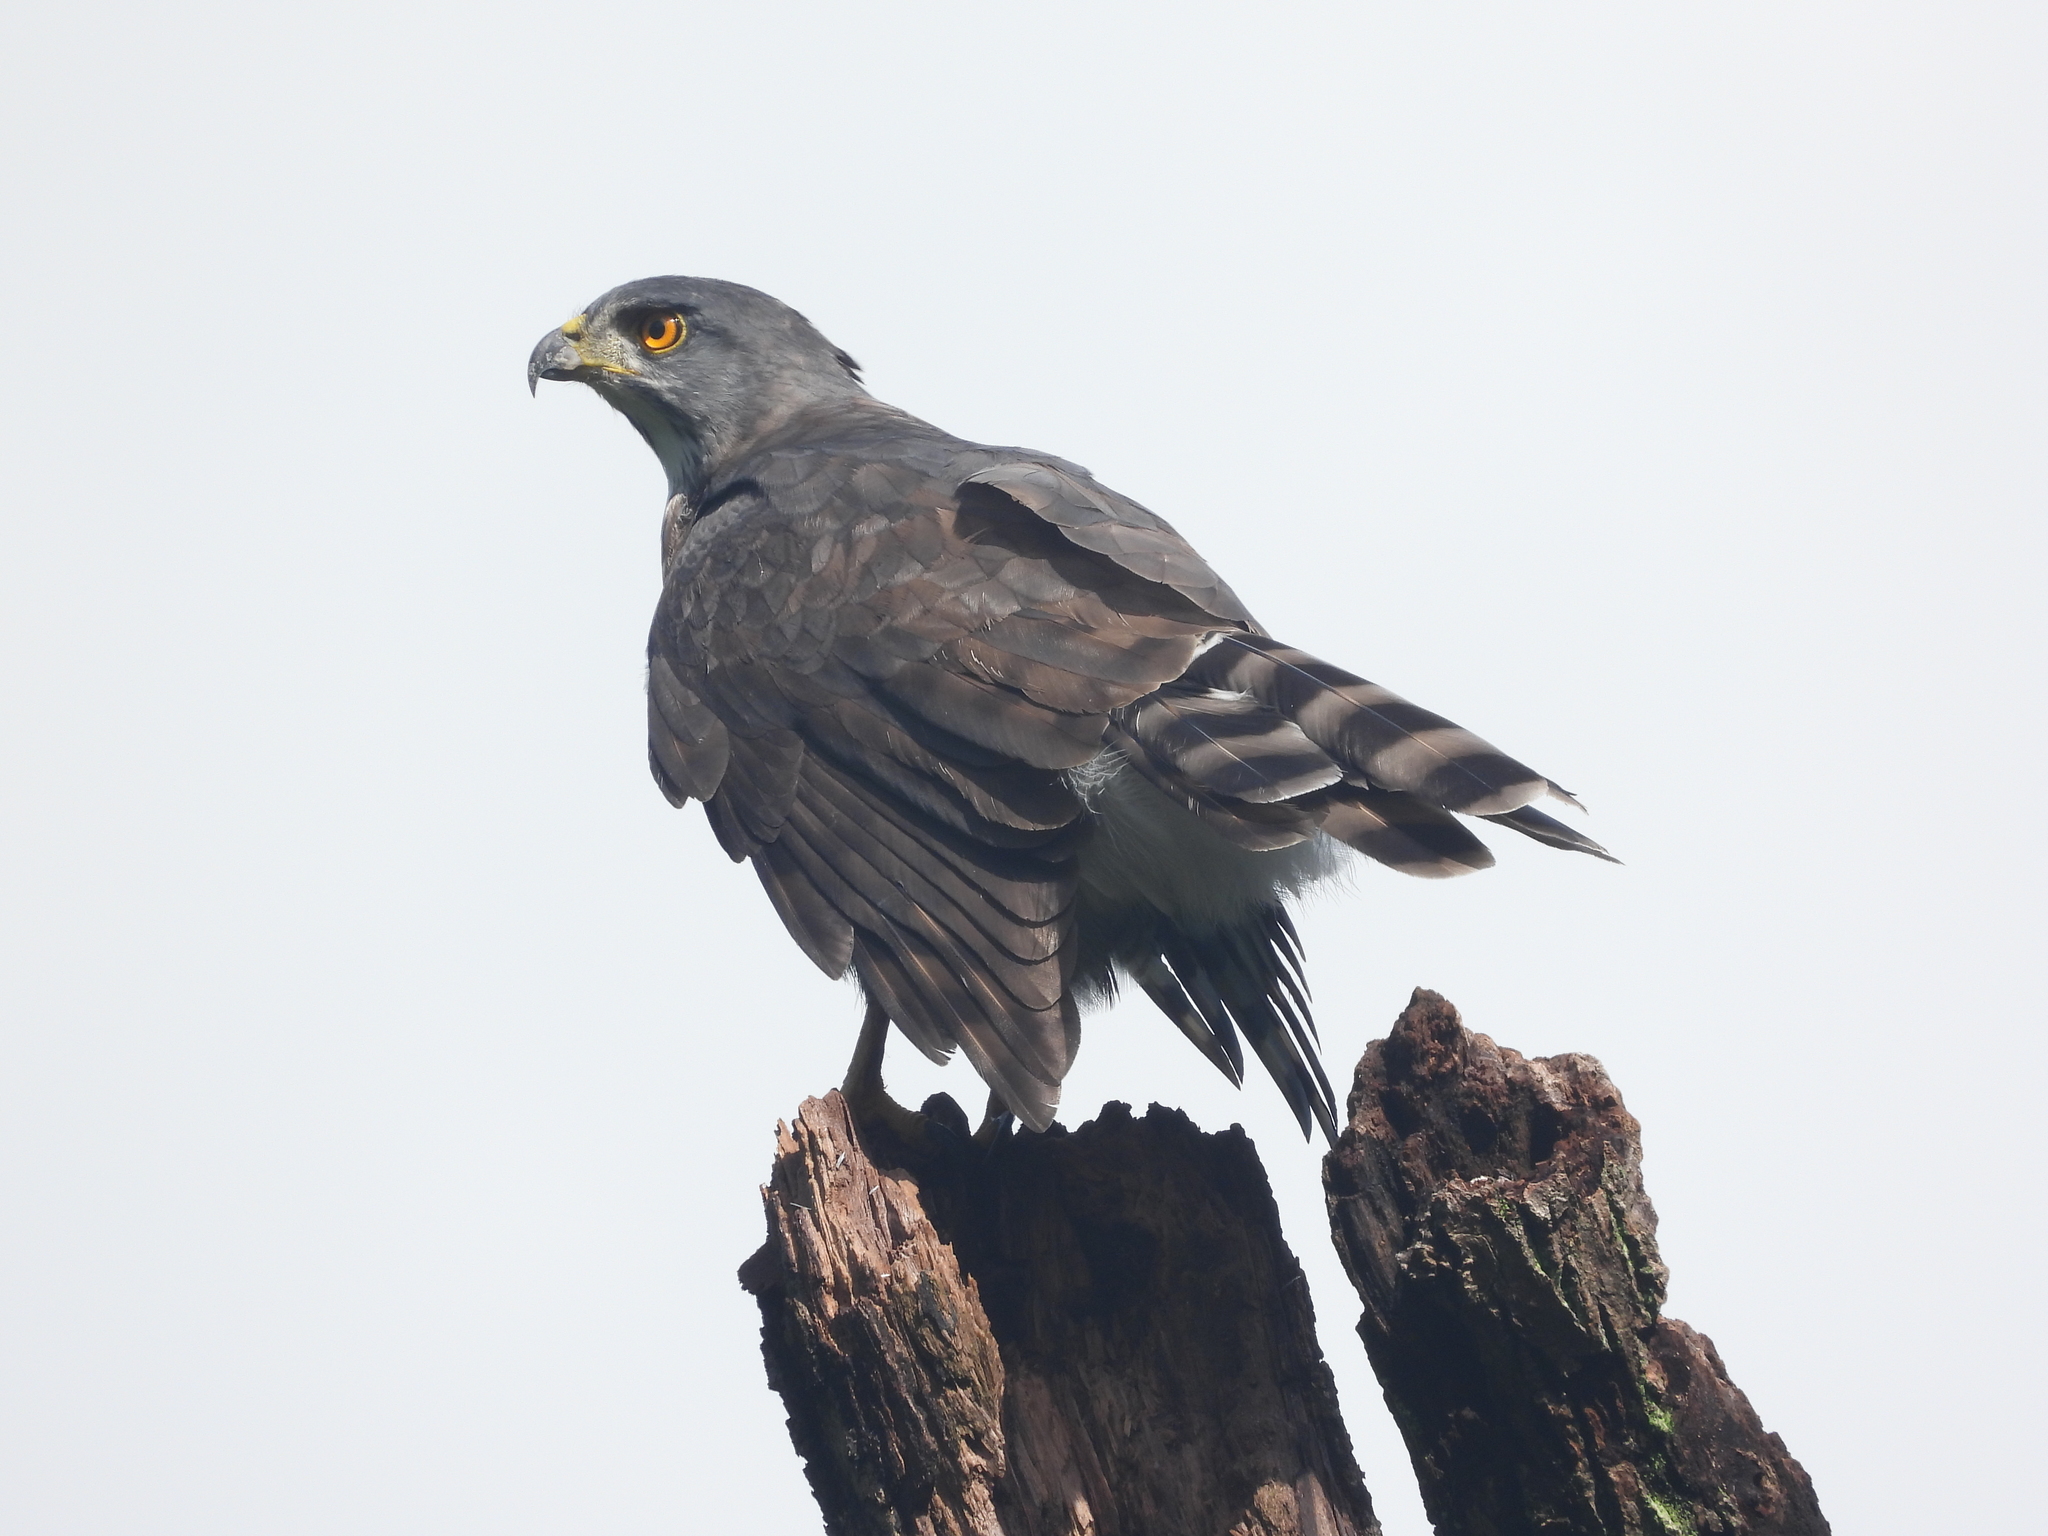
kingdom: Animalia
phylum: Chordata
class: Aves
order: Accipitriformes
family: Accipitridae
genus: Accipiter
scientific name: Accipiter trivirgatus
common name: Crested goshawk
